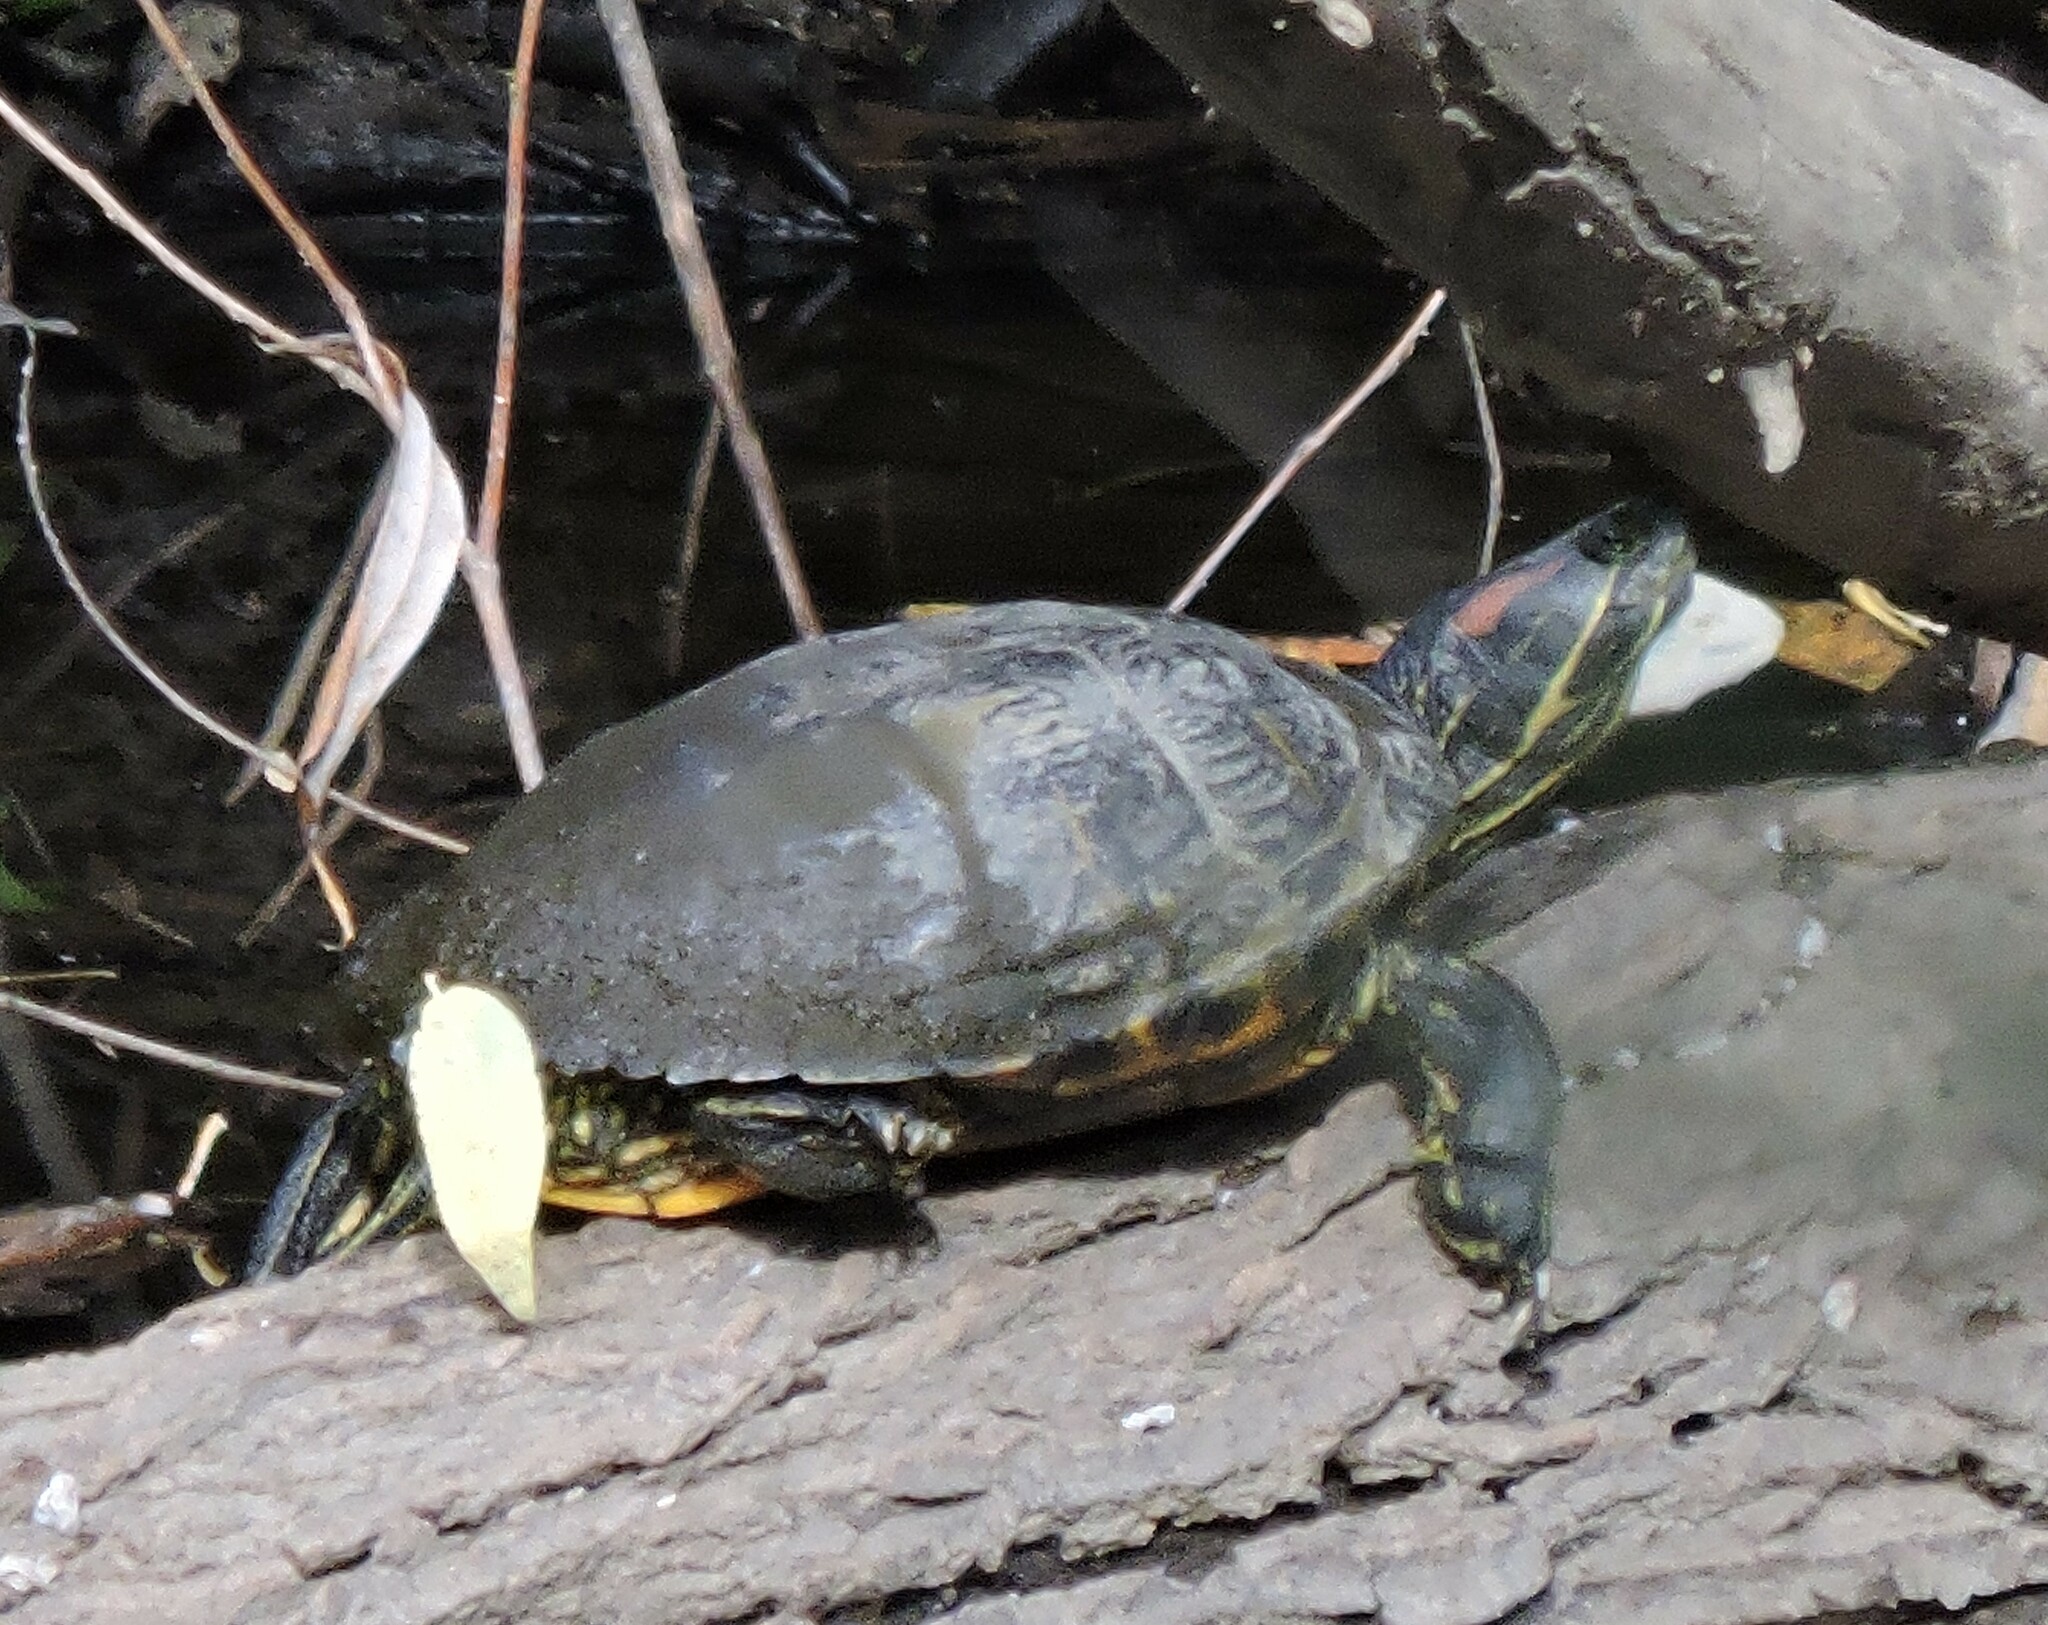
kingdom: Animalia
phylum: Chordata
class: Testudines
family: Emydidae
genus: Trachemys
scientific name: Trachemys scripta
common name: Slider
